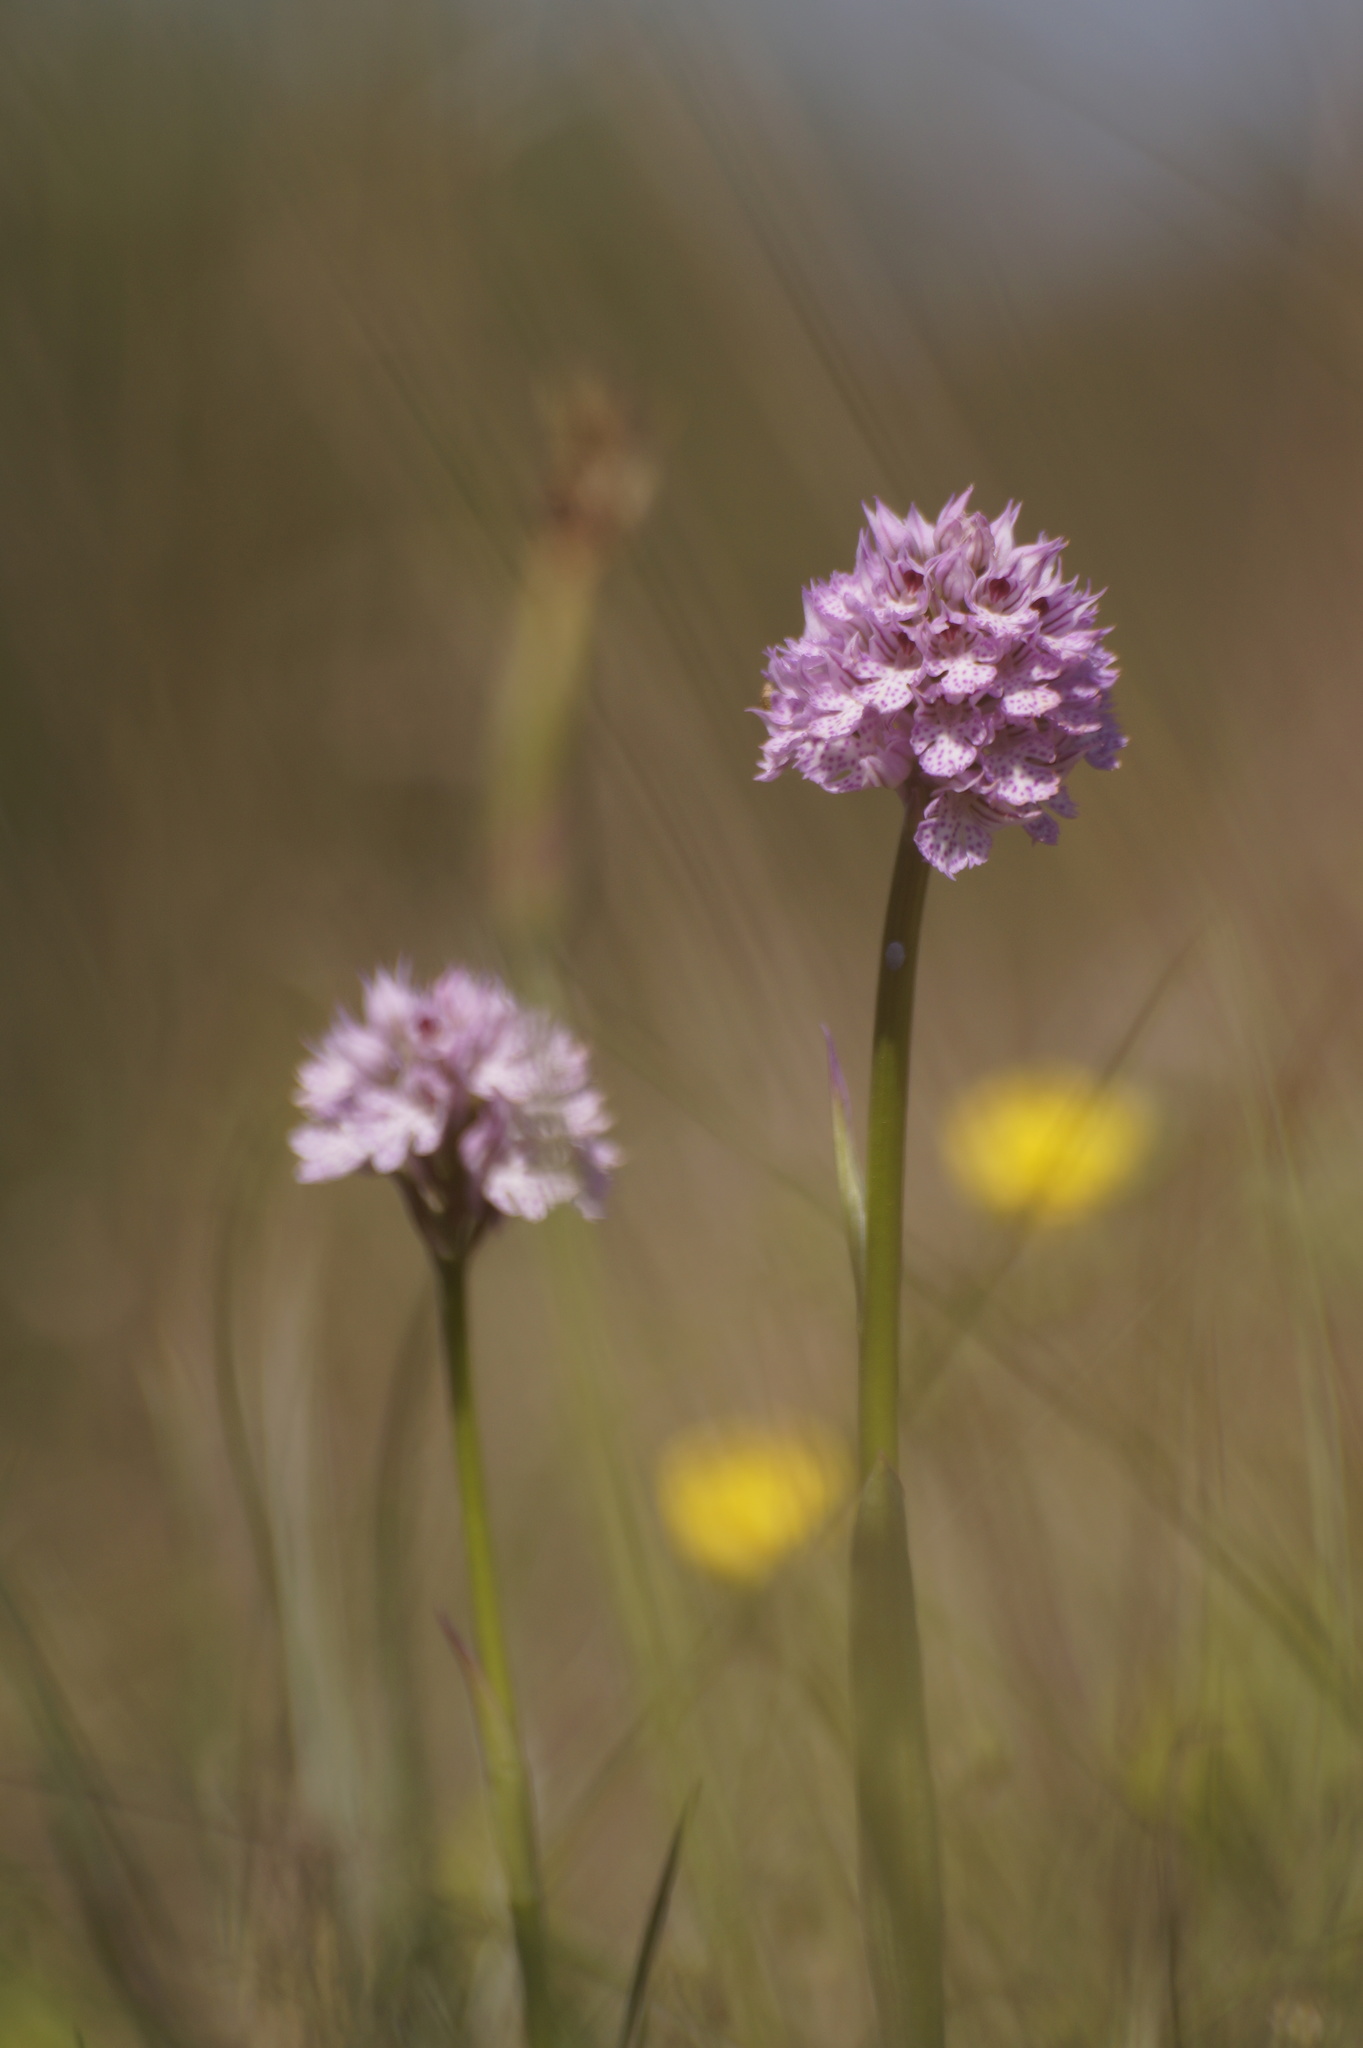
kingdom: Plantae
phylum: Tracheophyta
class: Liliopsida
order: Asparagales
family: Orchidaceae
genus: Neotinea
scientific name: Neotinea tridentata
